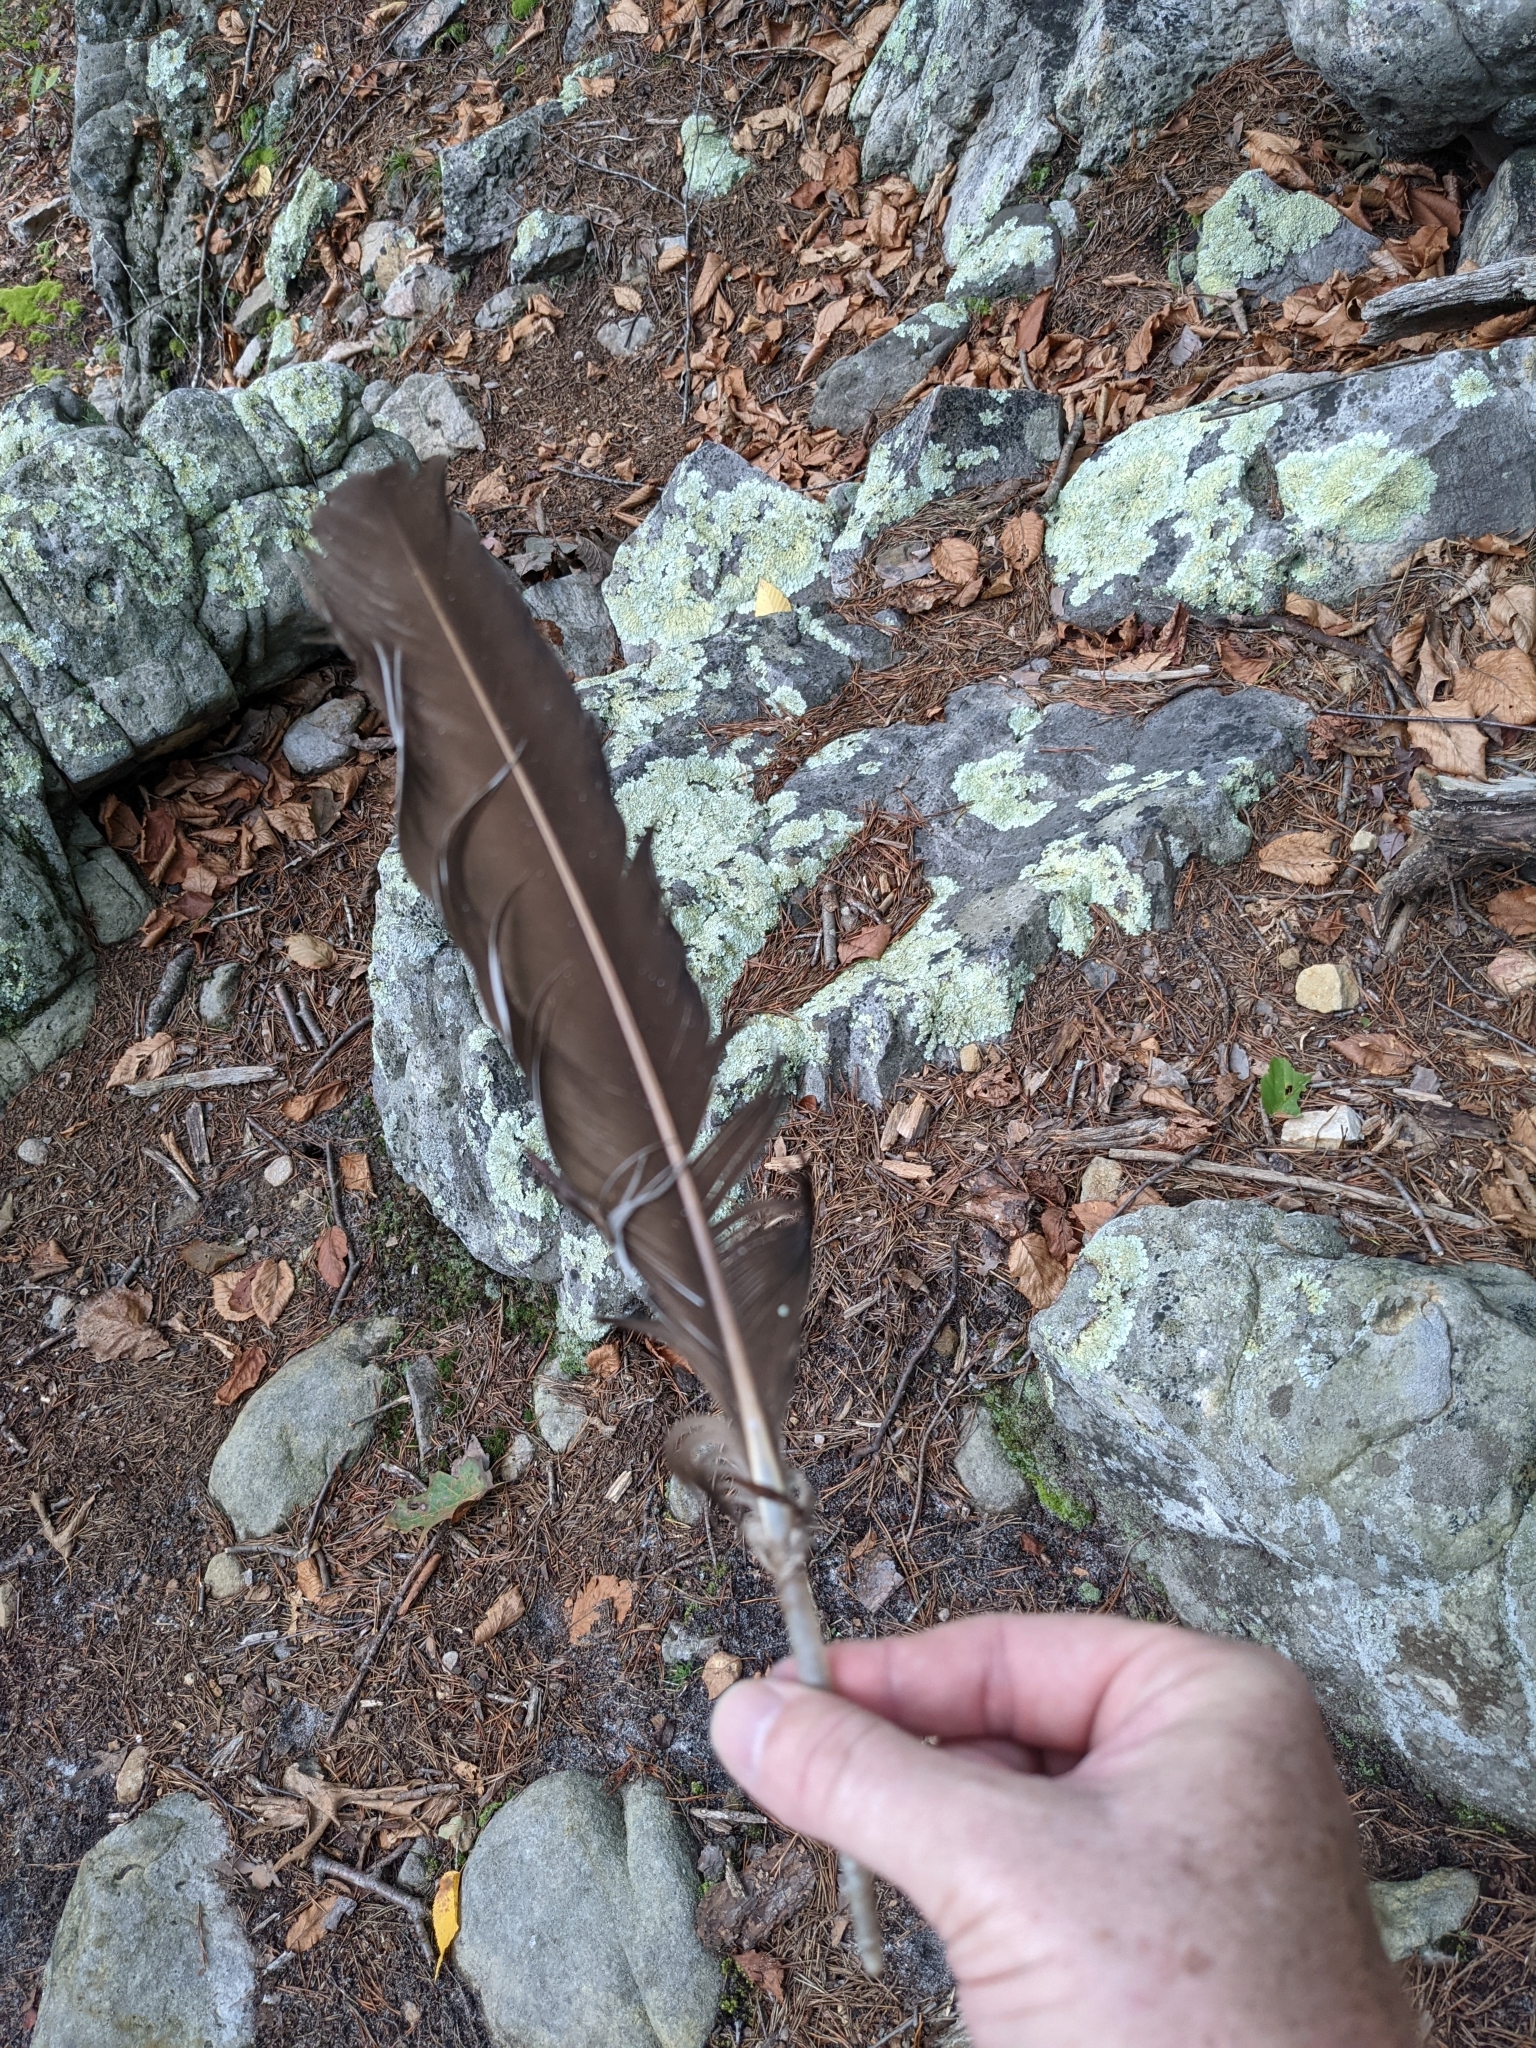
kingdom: Animalia
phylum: Chordata
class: Aves
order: Accipitriformes
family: Cathartidae
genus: Cathartes
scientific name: Cathartes aura
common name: Turkey vulture
